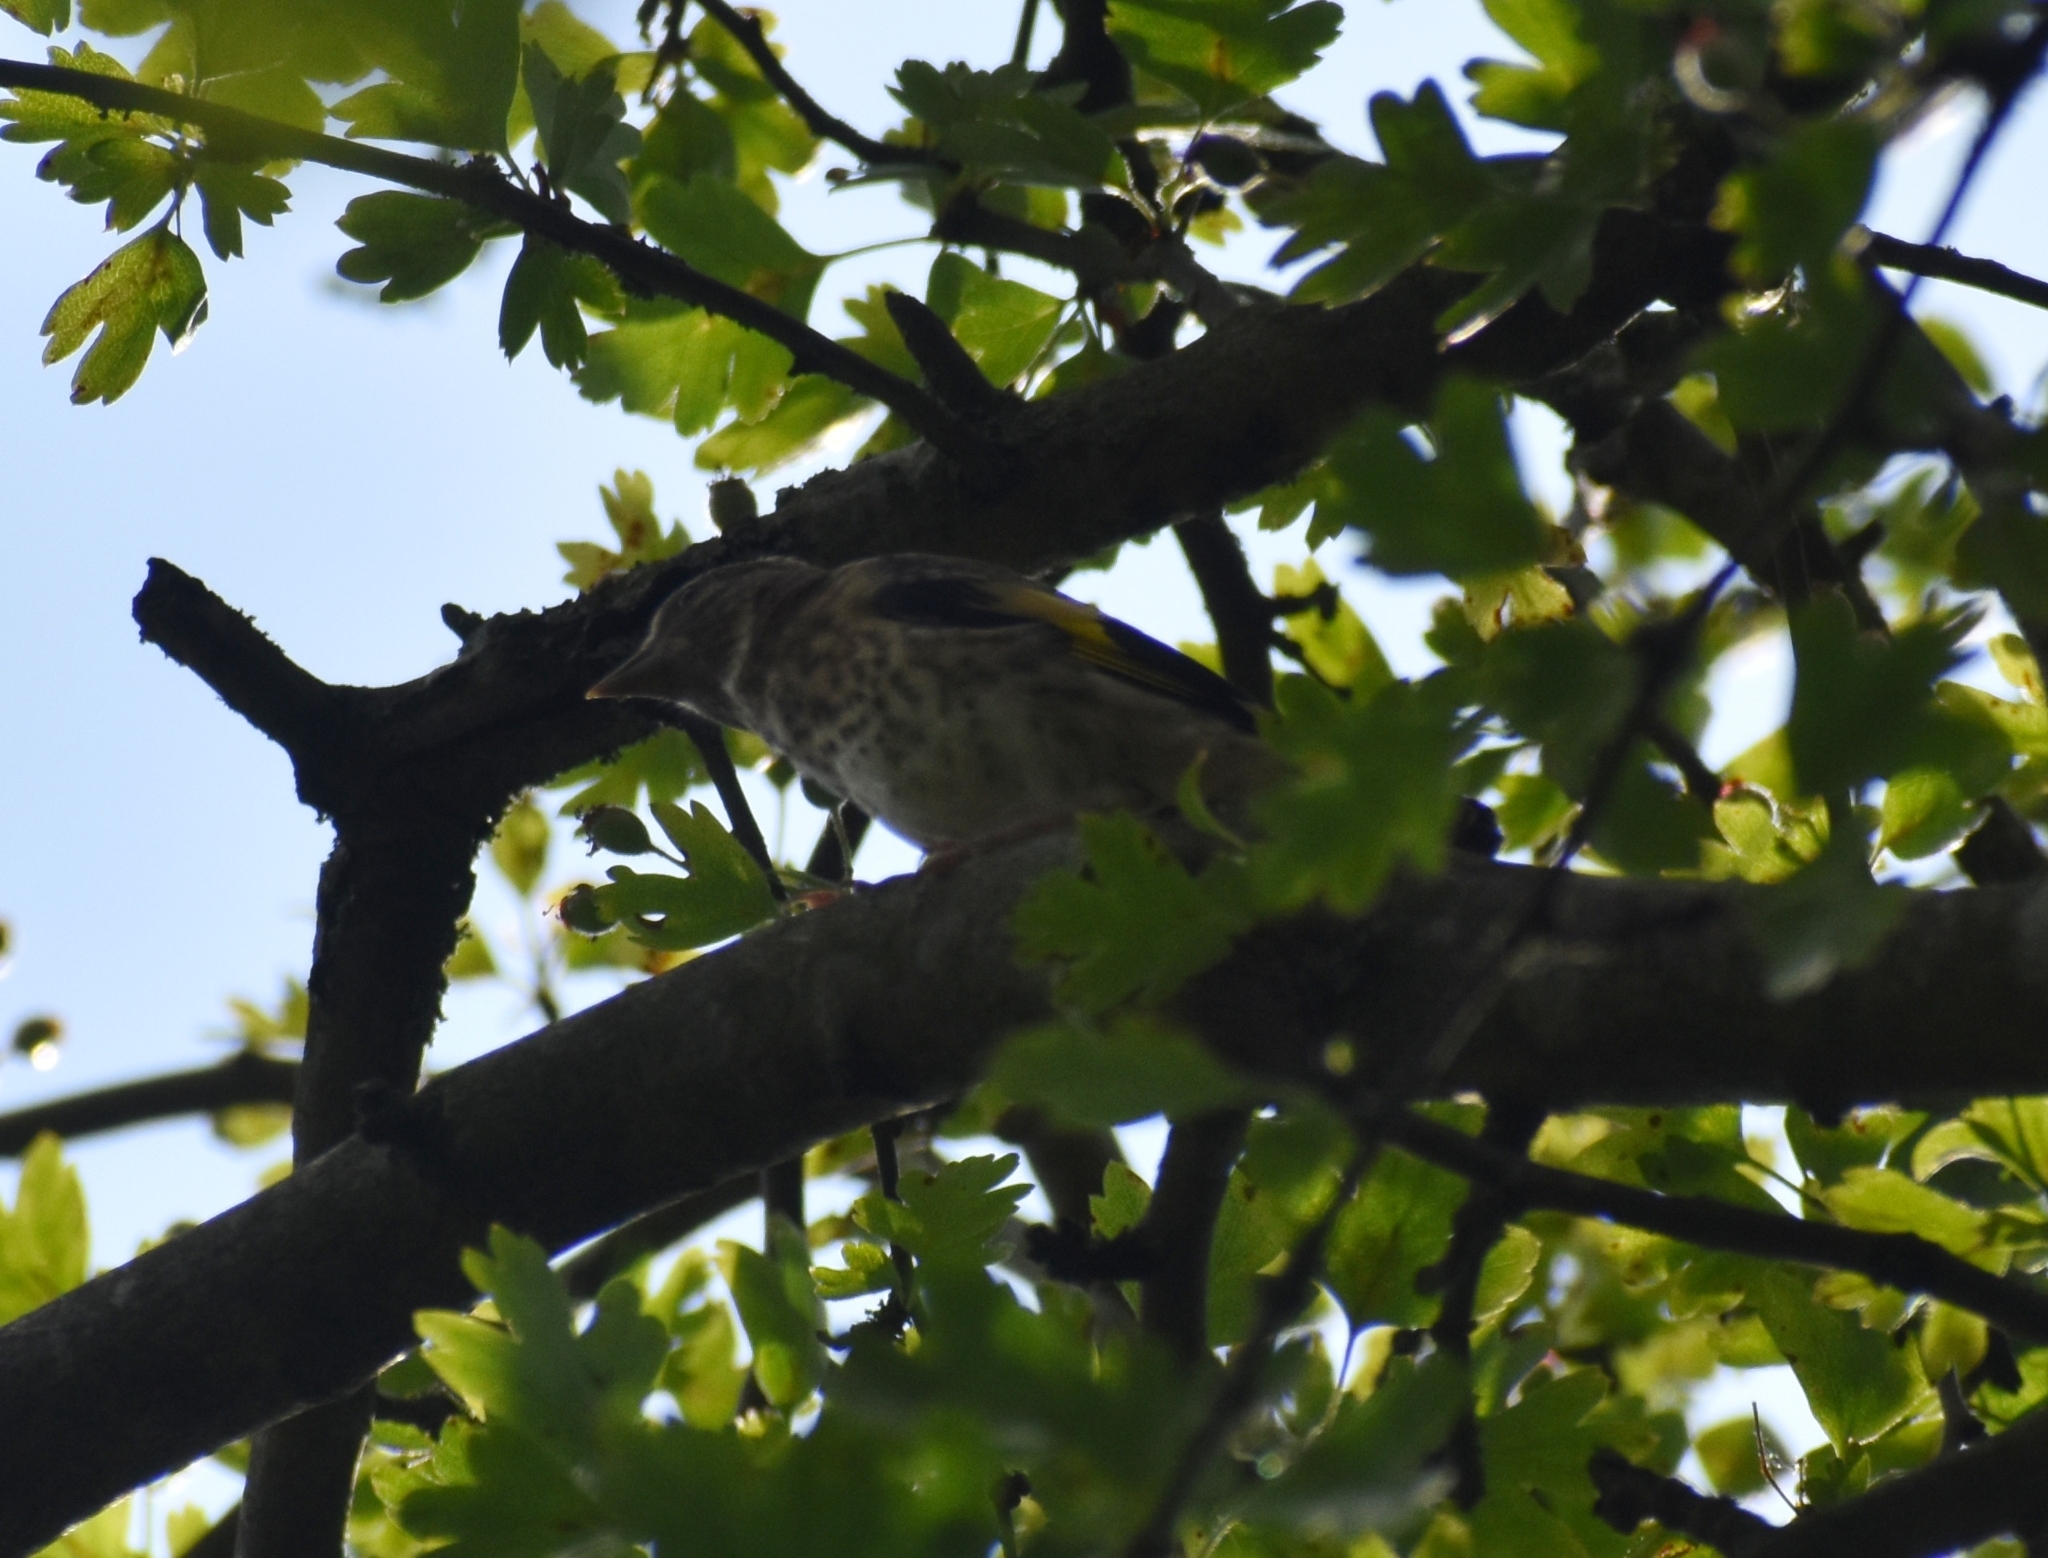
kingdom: Animalia
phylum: Chordata
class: Aves
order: Passeriformes
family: Fringillidae
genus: Carduelis
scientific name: Carduelis carduelis
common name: European goldfinch
